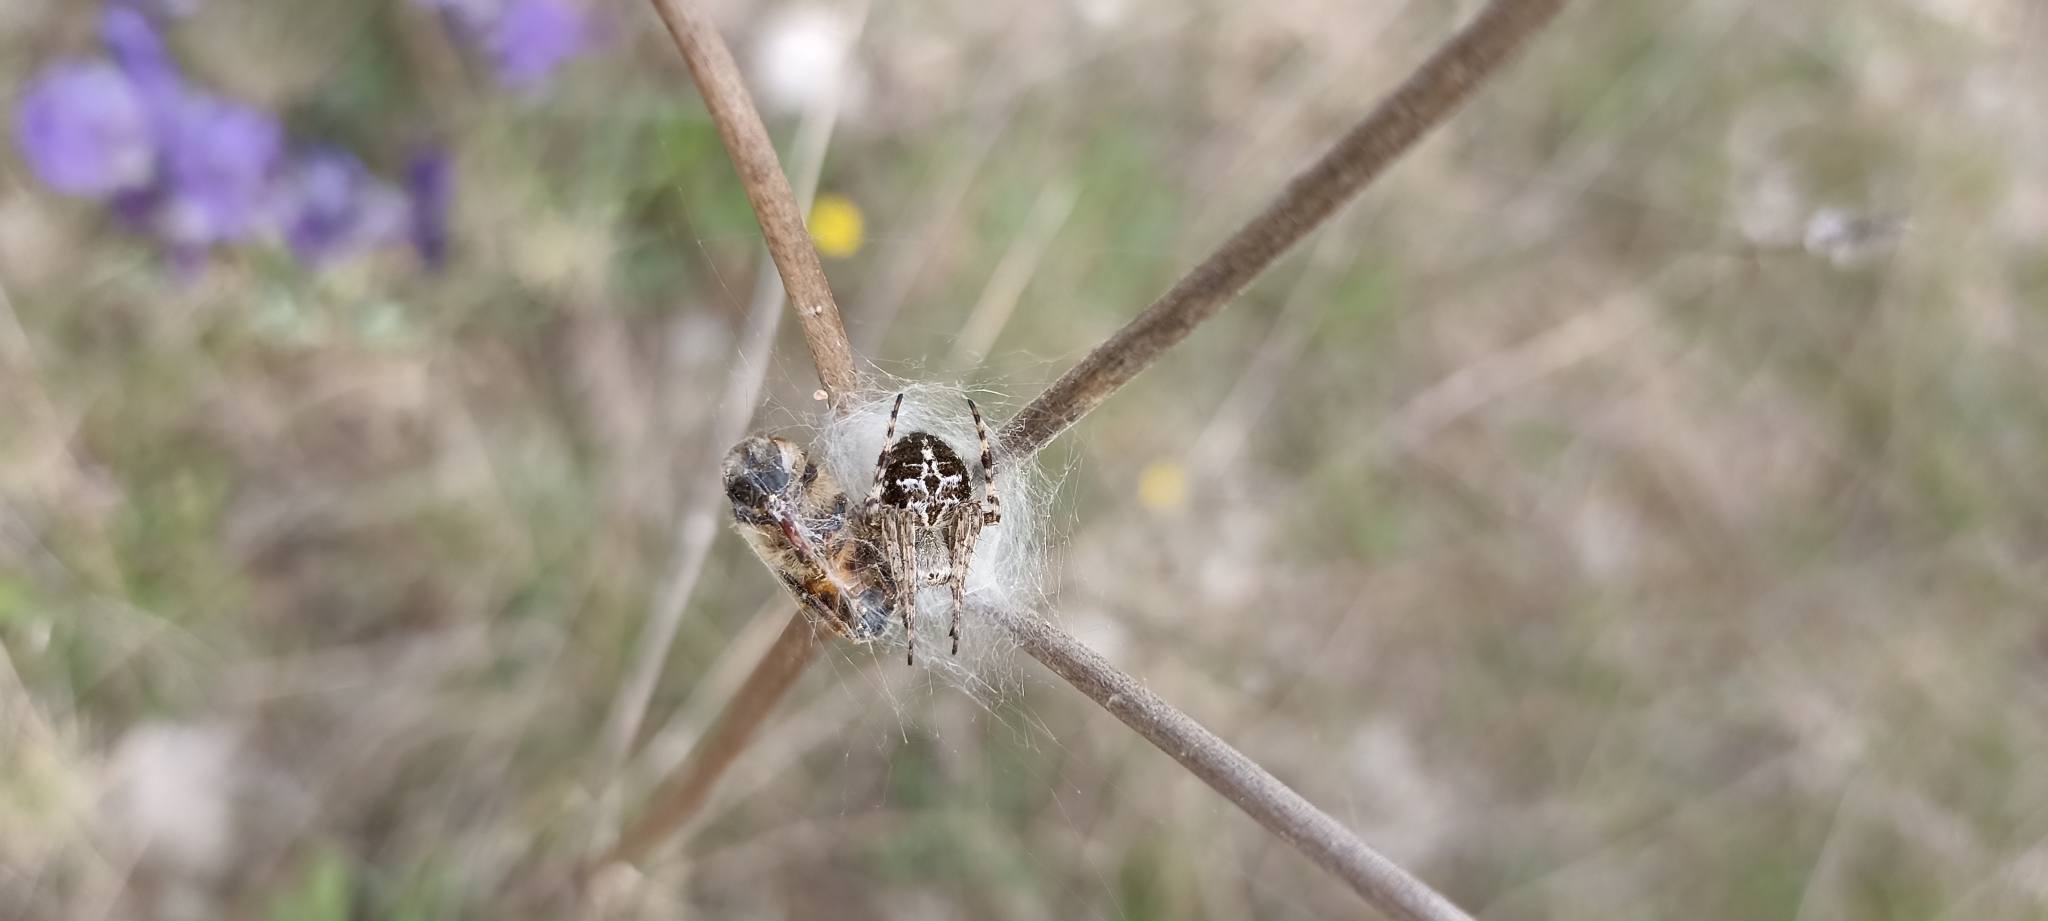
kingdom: Animalia
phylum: Arthropoda
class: Arachnida
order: Araneae
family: Araneidae
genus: Agalenatea
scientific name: Agalenatea redii
